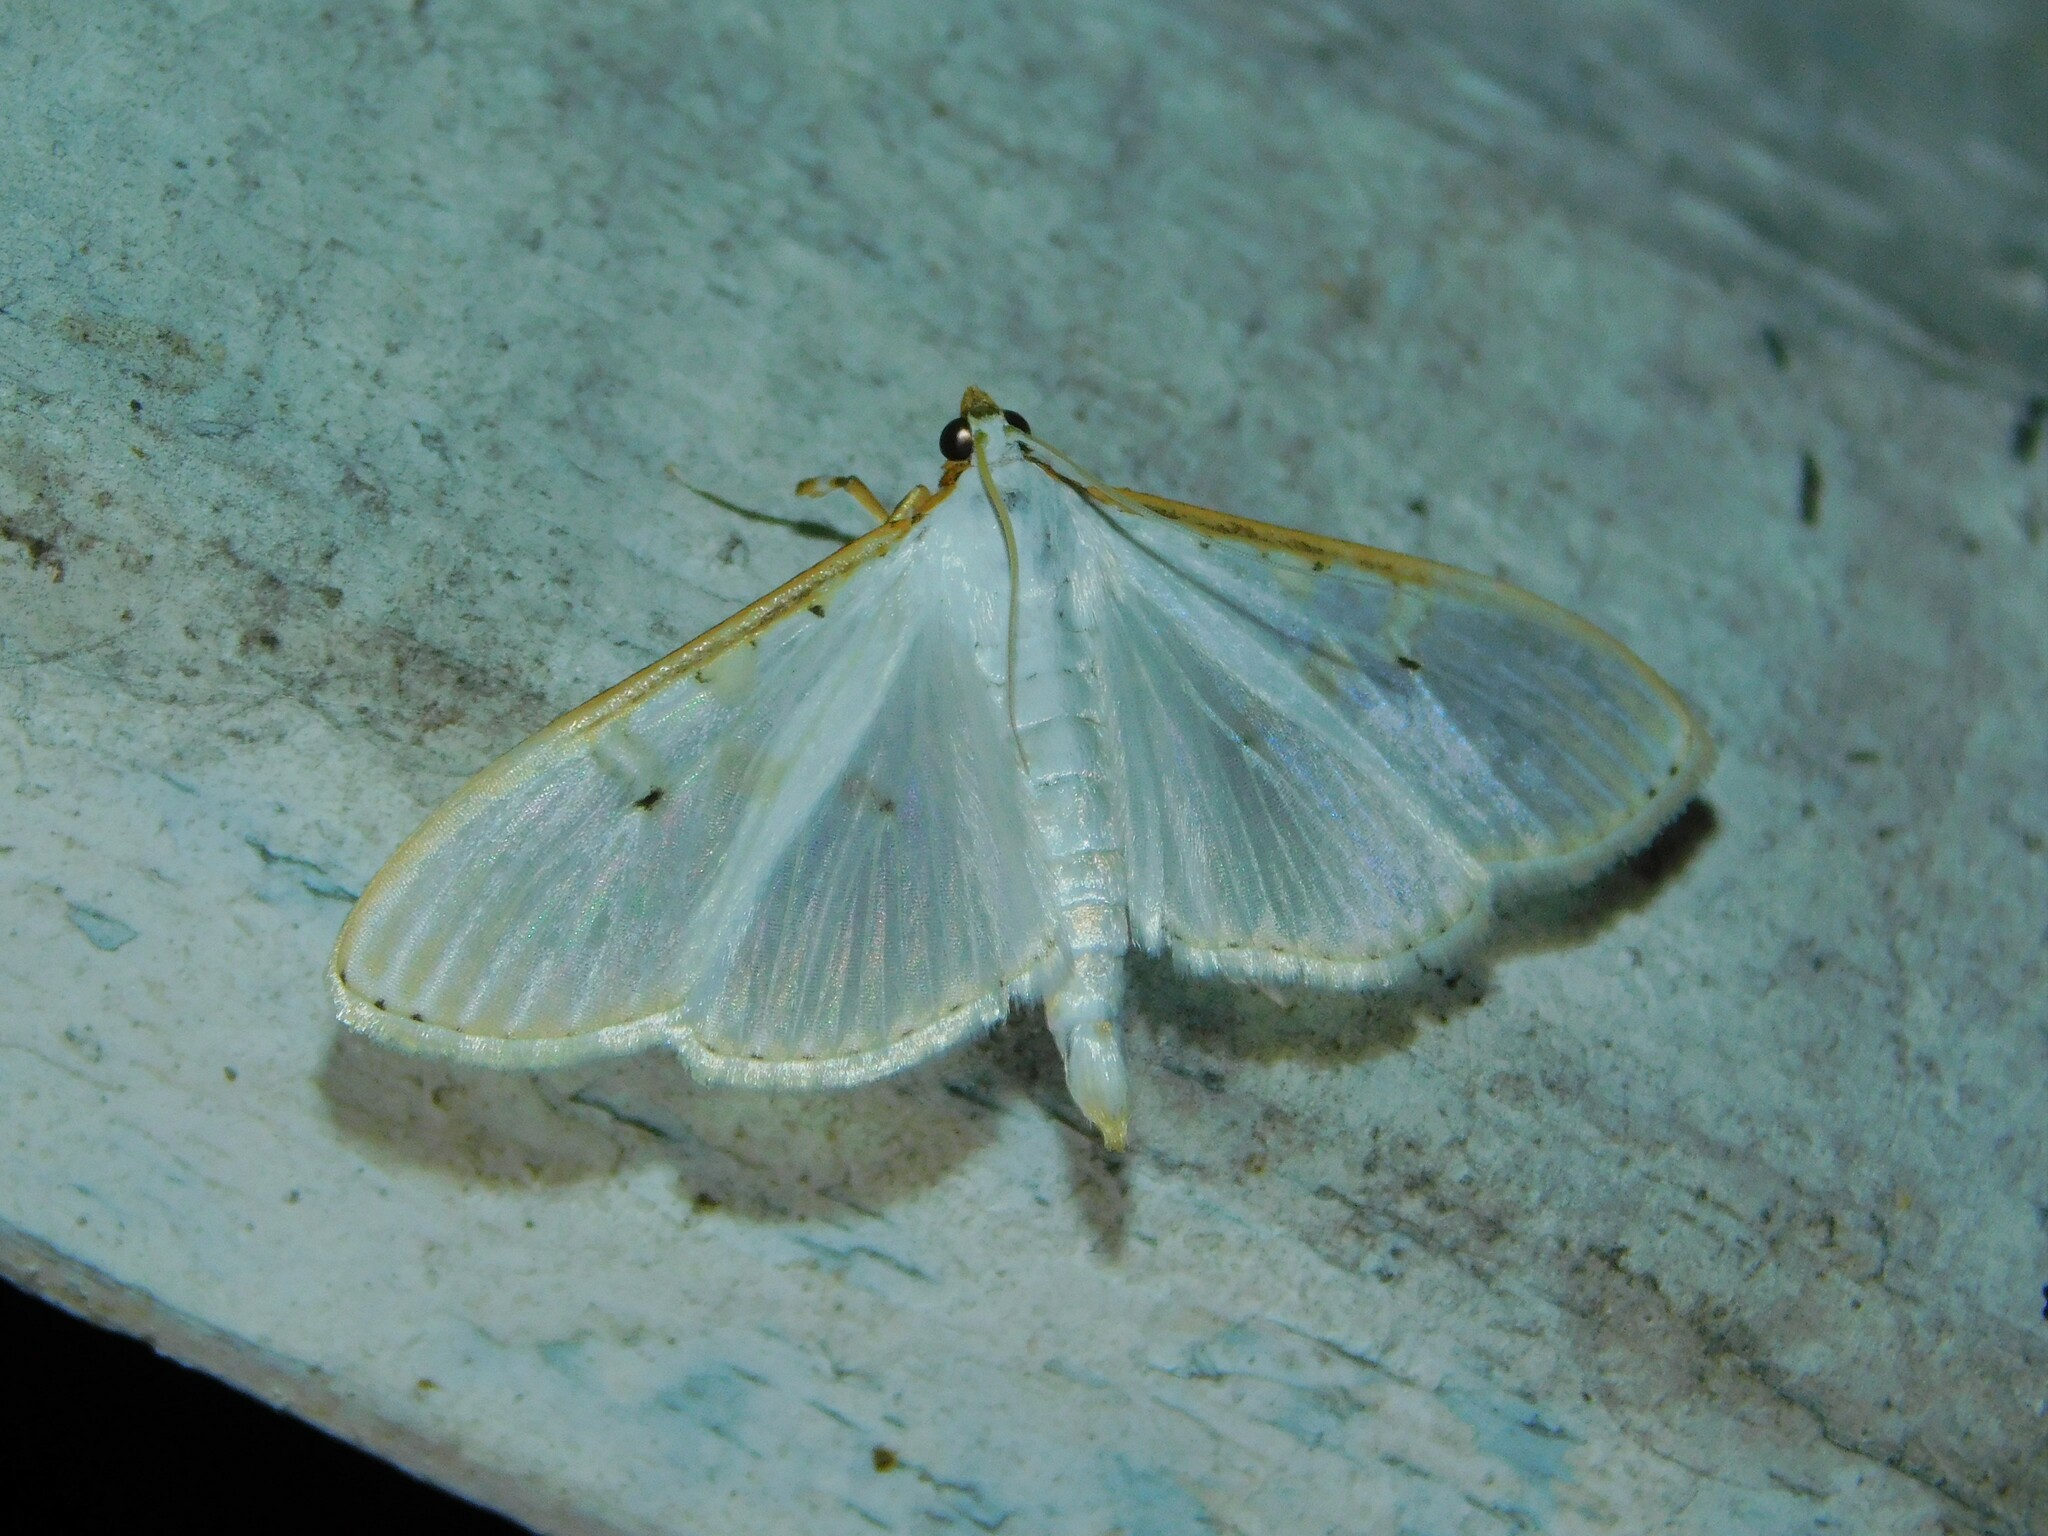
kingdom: Animalia
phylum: Arthropoda
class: Insecta
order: Lepidoptera
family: Crambidae
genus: Palpita
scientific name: Palpita vitrealis
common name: Olive-tree pearl
